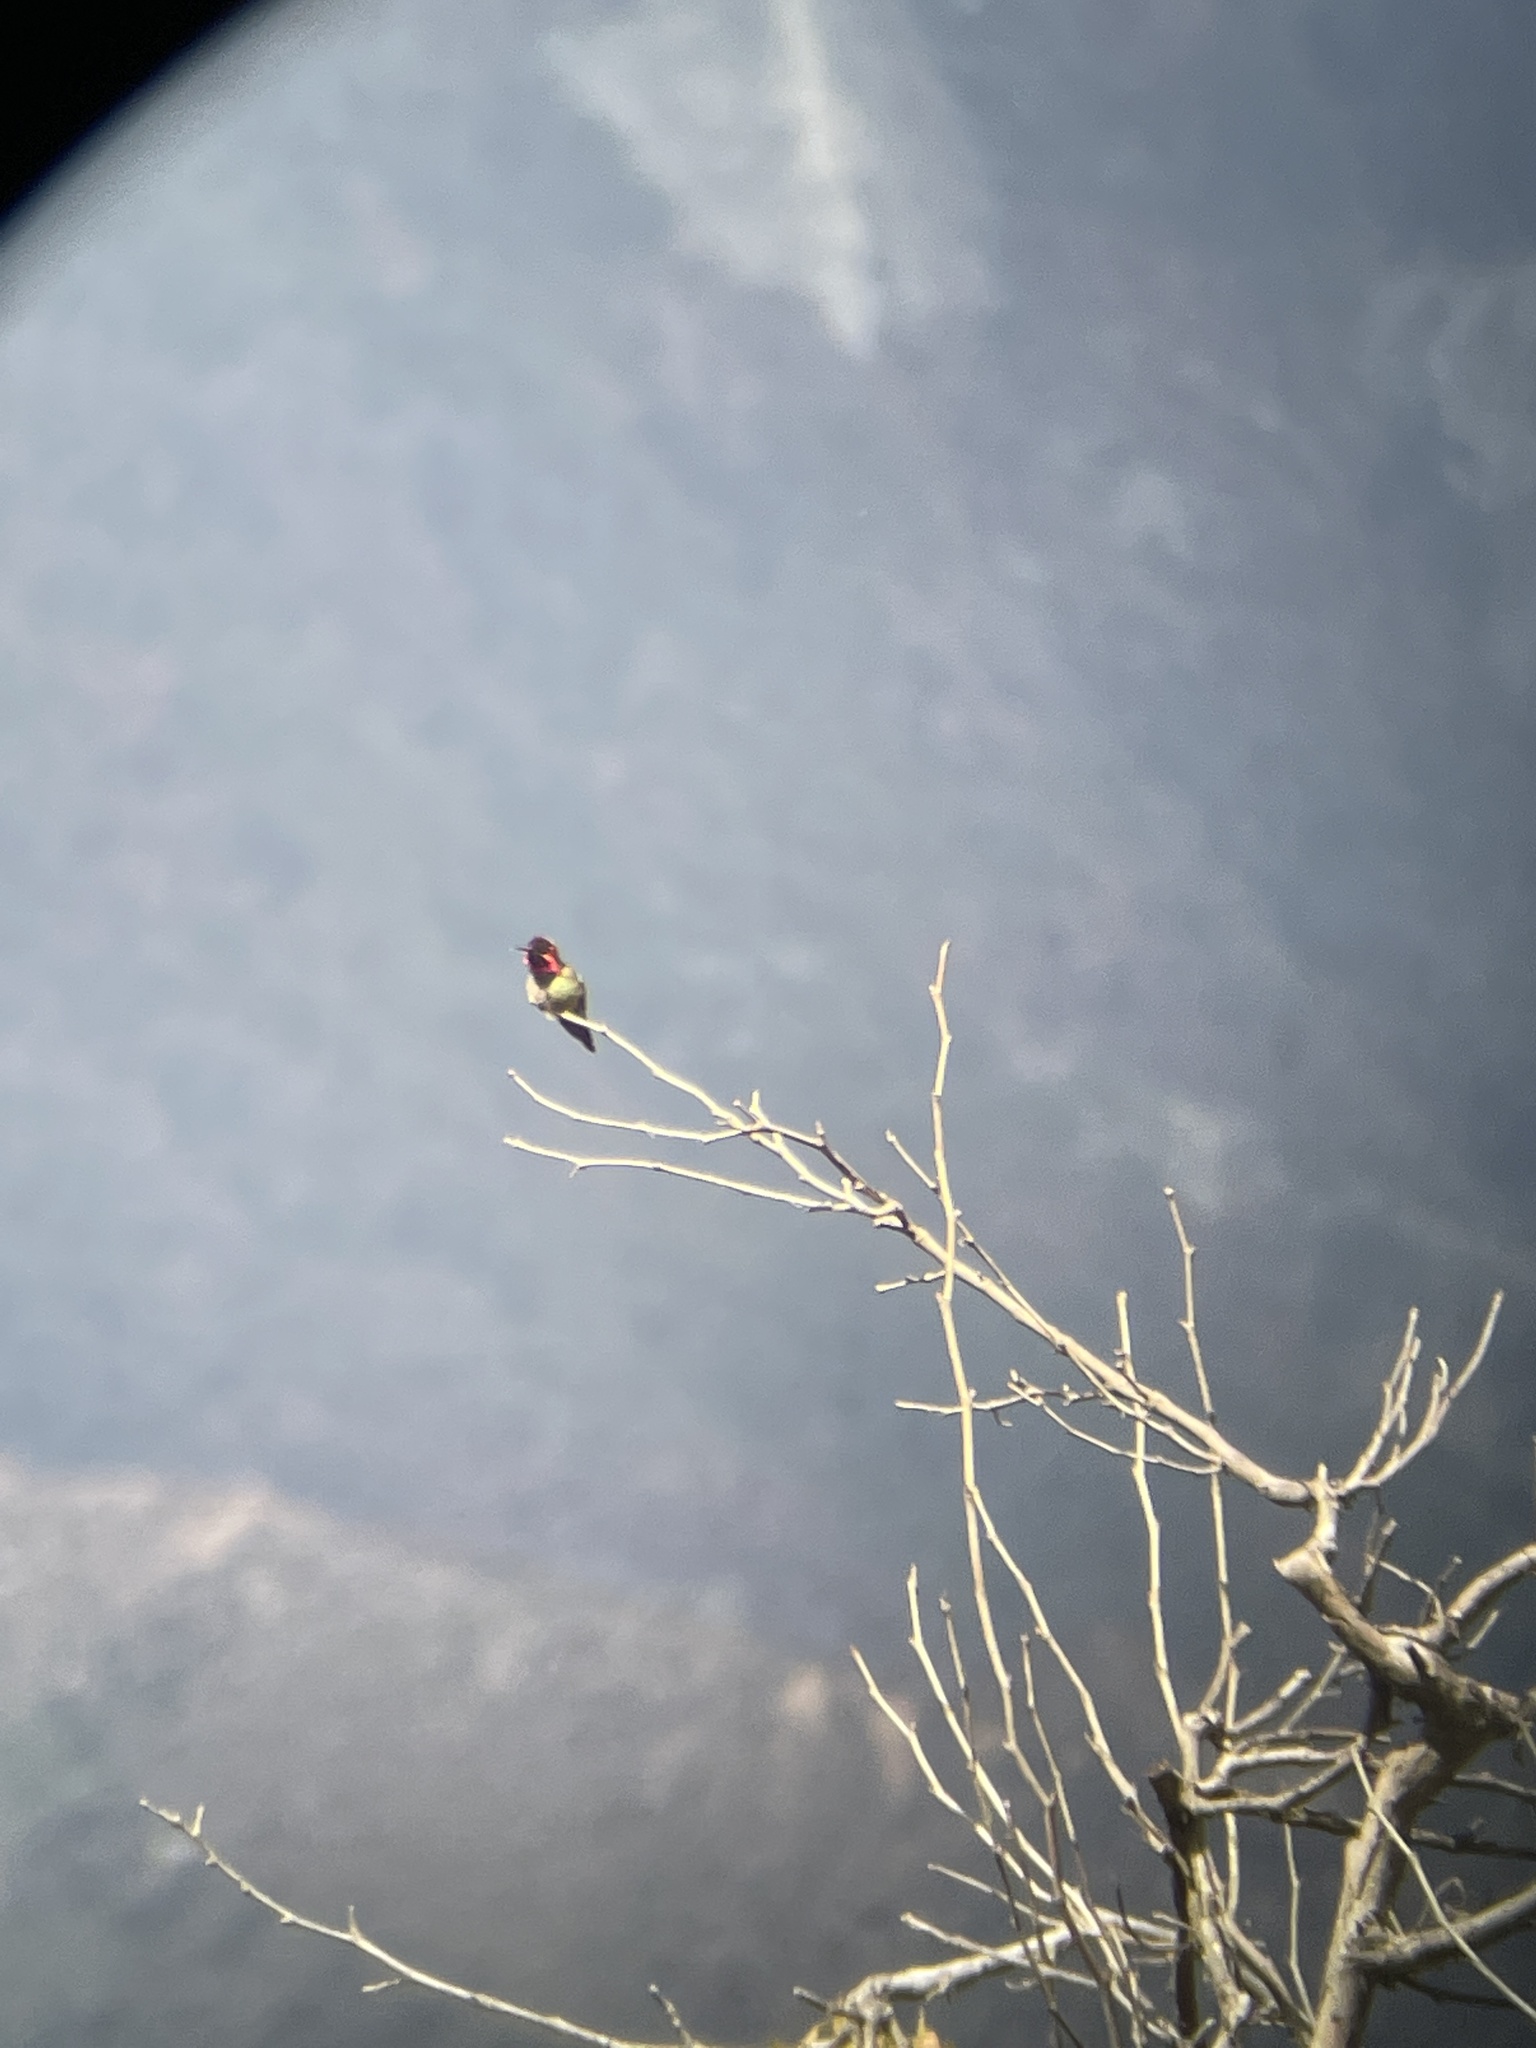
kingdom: Animalia
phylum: Chordata
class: Aves
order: Apodiformes
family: Trochilidae
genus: Calypte
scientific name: Calypte anna
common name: Anna's hummingbird
